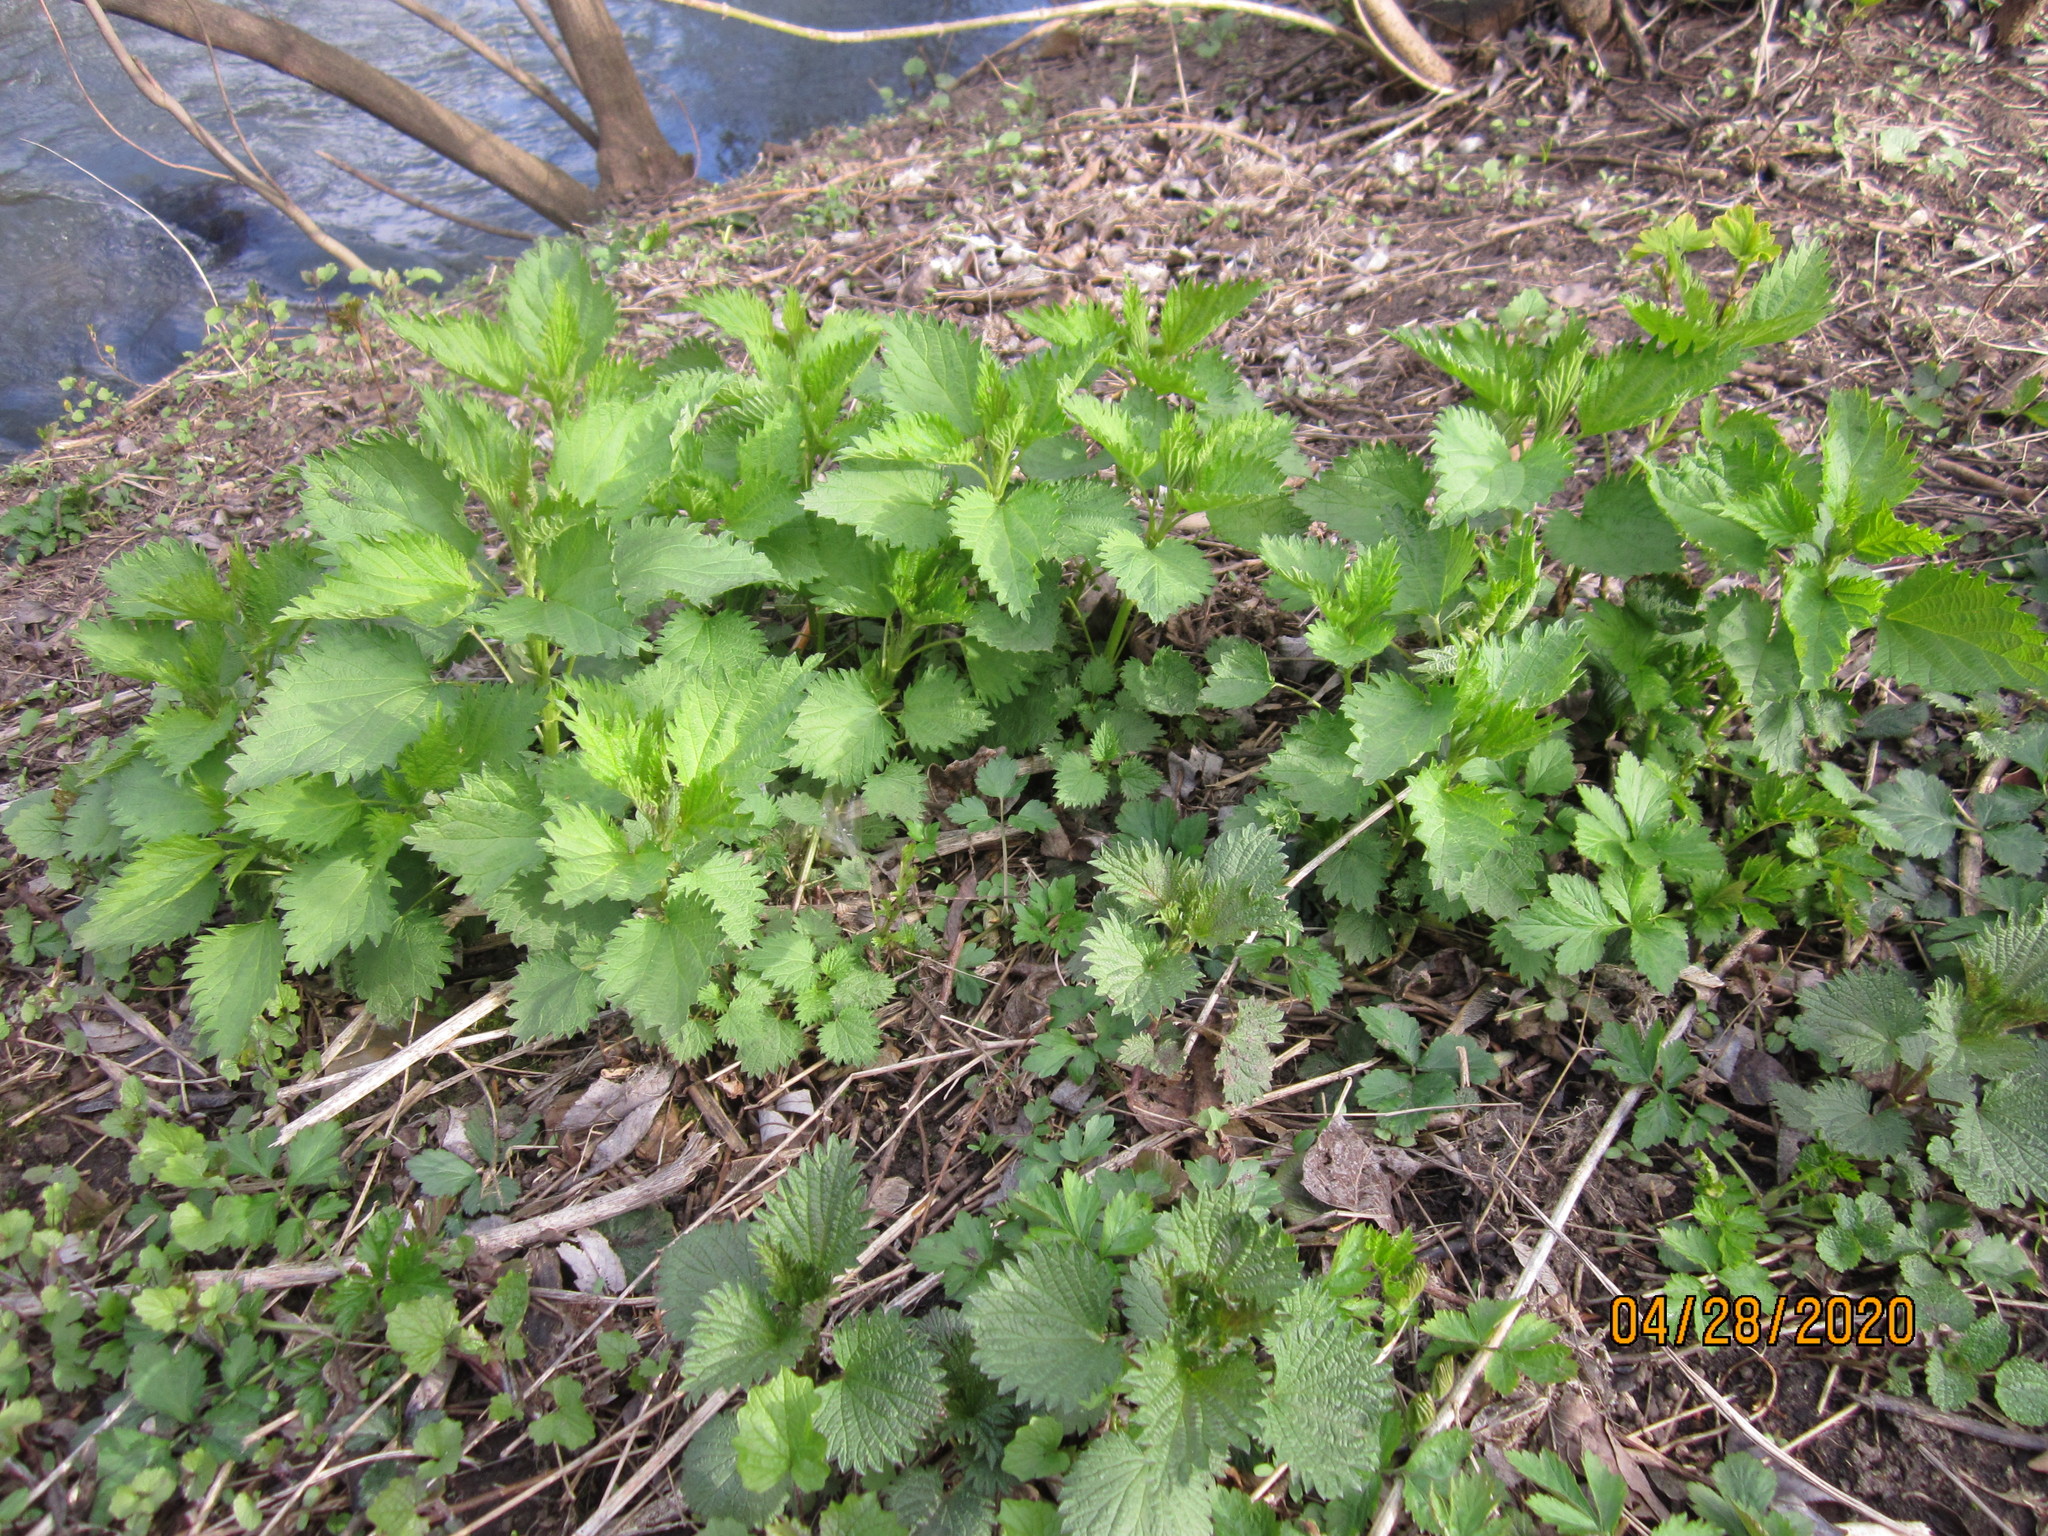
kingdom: Plantae
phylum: Tracheophyta
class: Magnoliopsida
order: Rosales
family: Urticaceae
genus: Urtica
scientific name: Urtica dioica
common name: Common nettle
